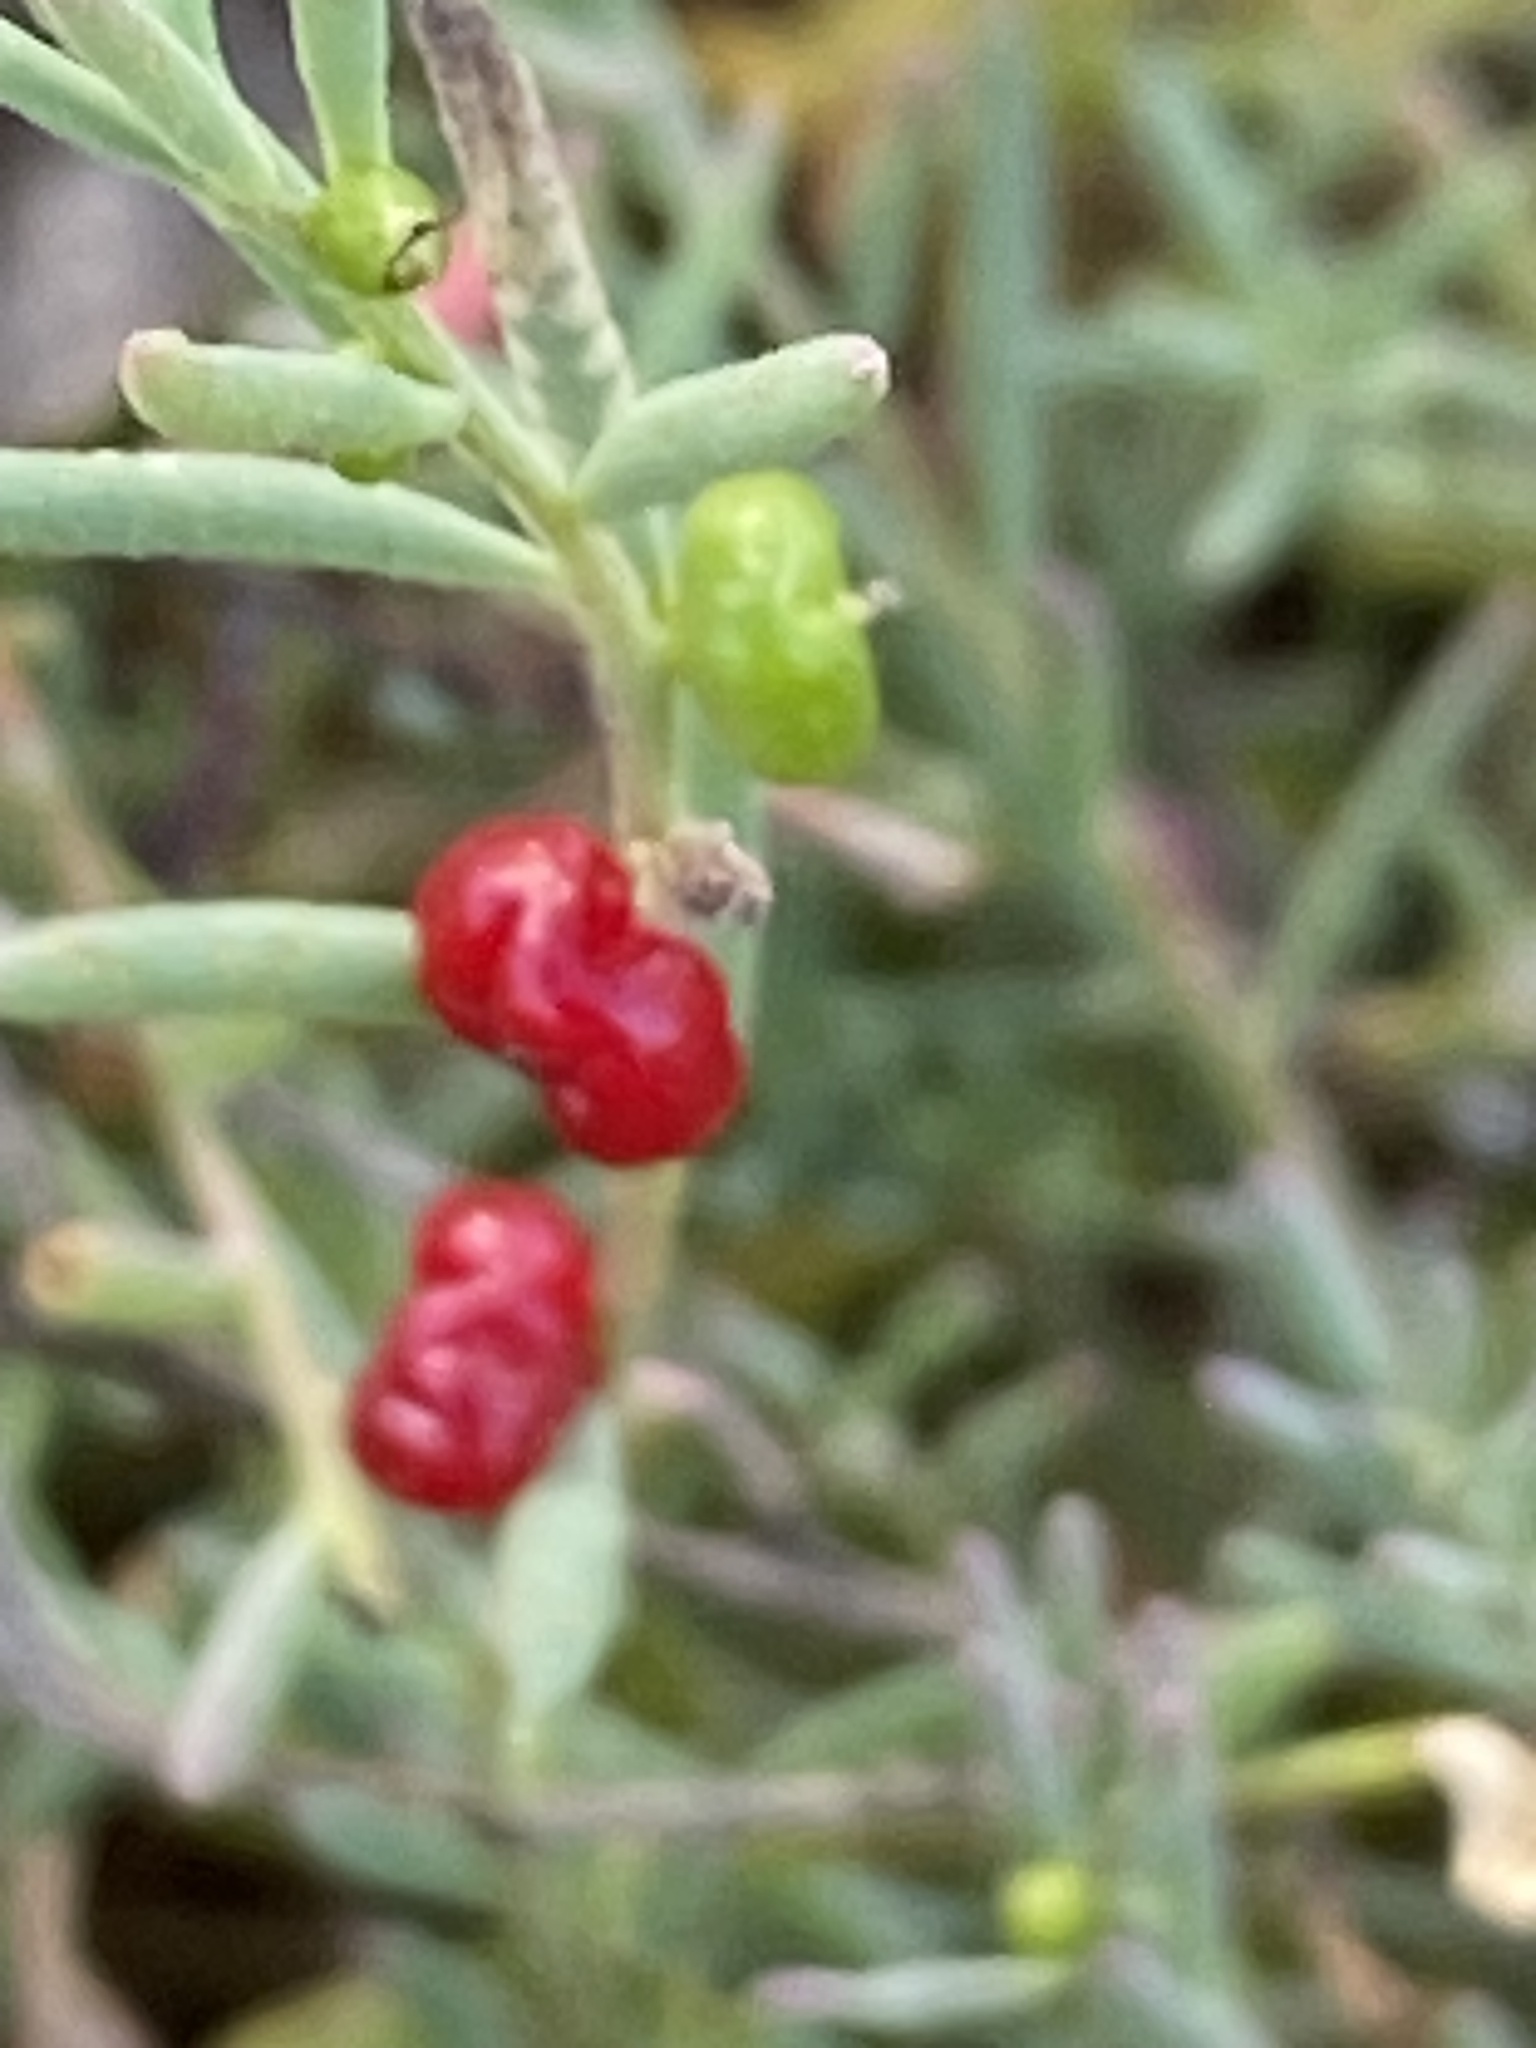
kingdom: Plantae
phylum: Tracheophyta
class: Magnoliopsida
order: Caryophyllales
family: Amaranthaceae
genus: Enchylaena
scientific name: Enchylaena tomentosa
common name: Ruby saltbush
